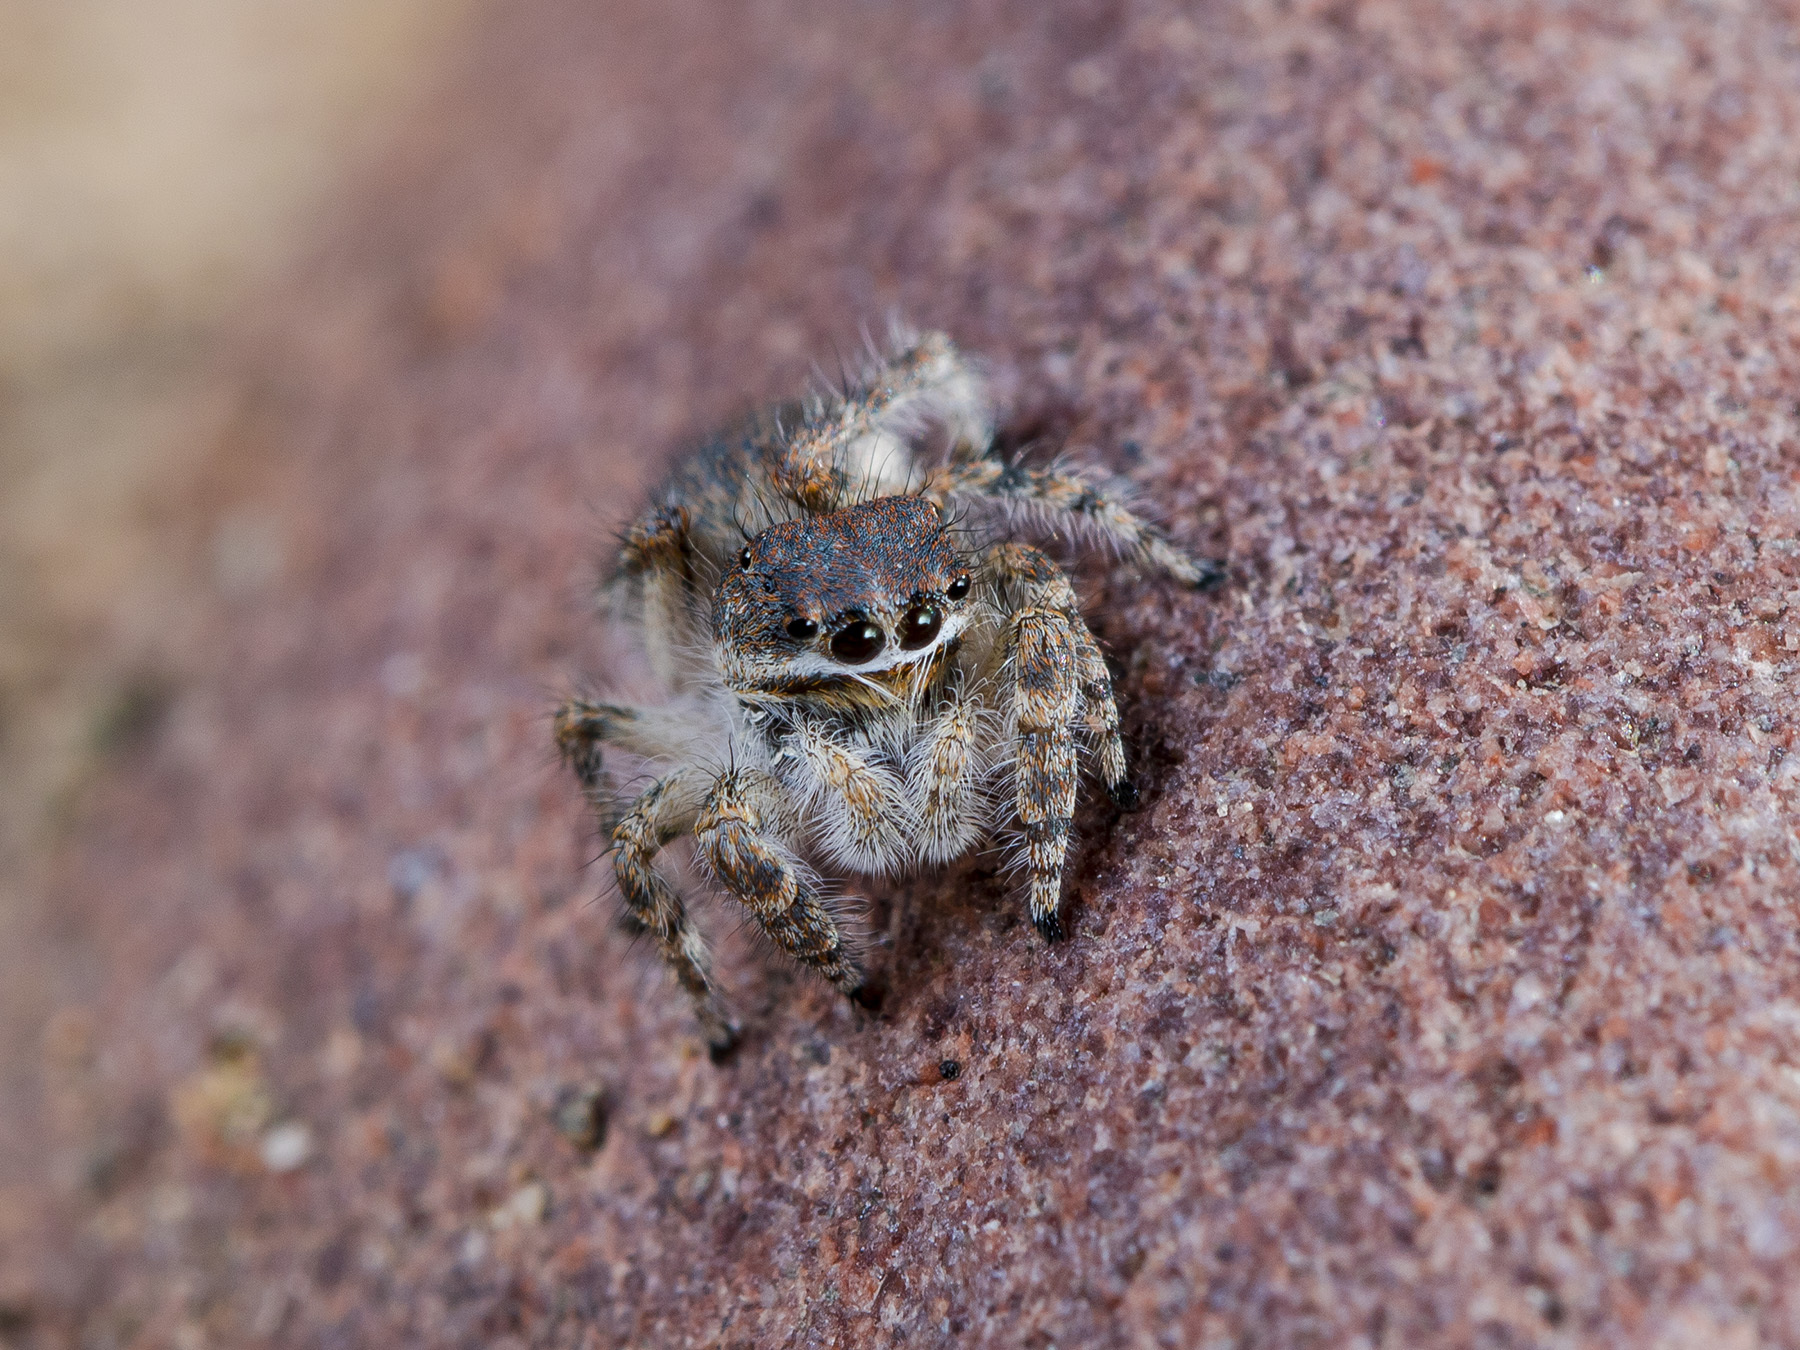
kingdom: Animalia
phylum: Arthropoda
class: Arachnida
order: Araneae
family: Salticidae
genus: Yllenus
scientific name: Yllenus zyuzini
